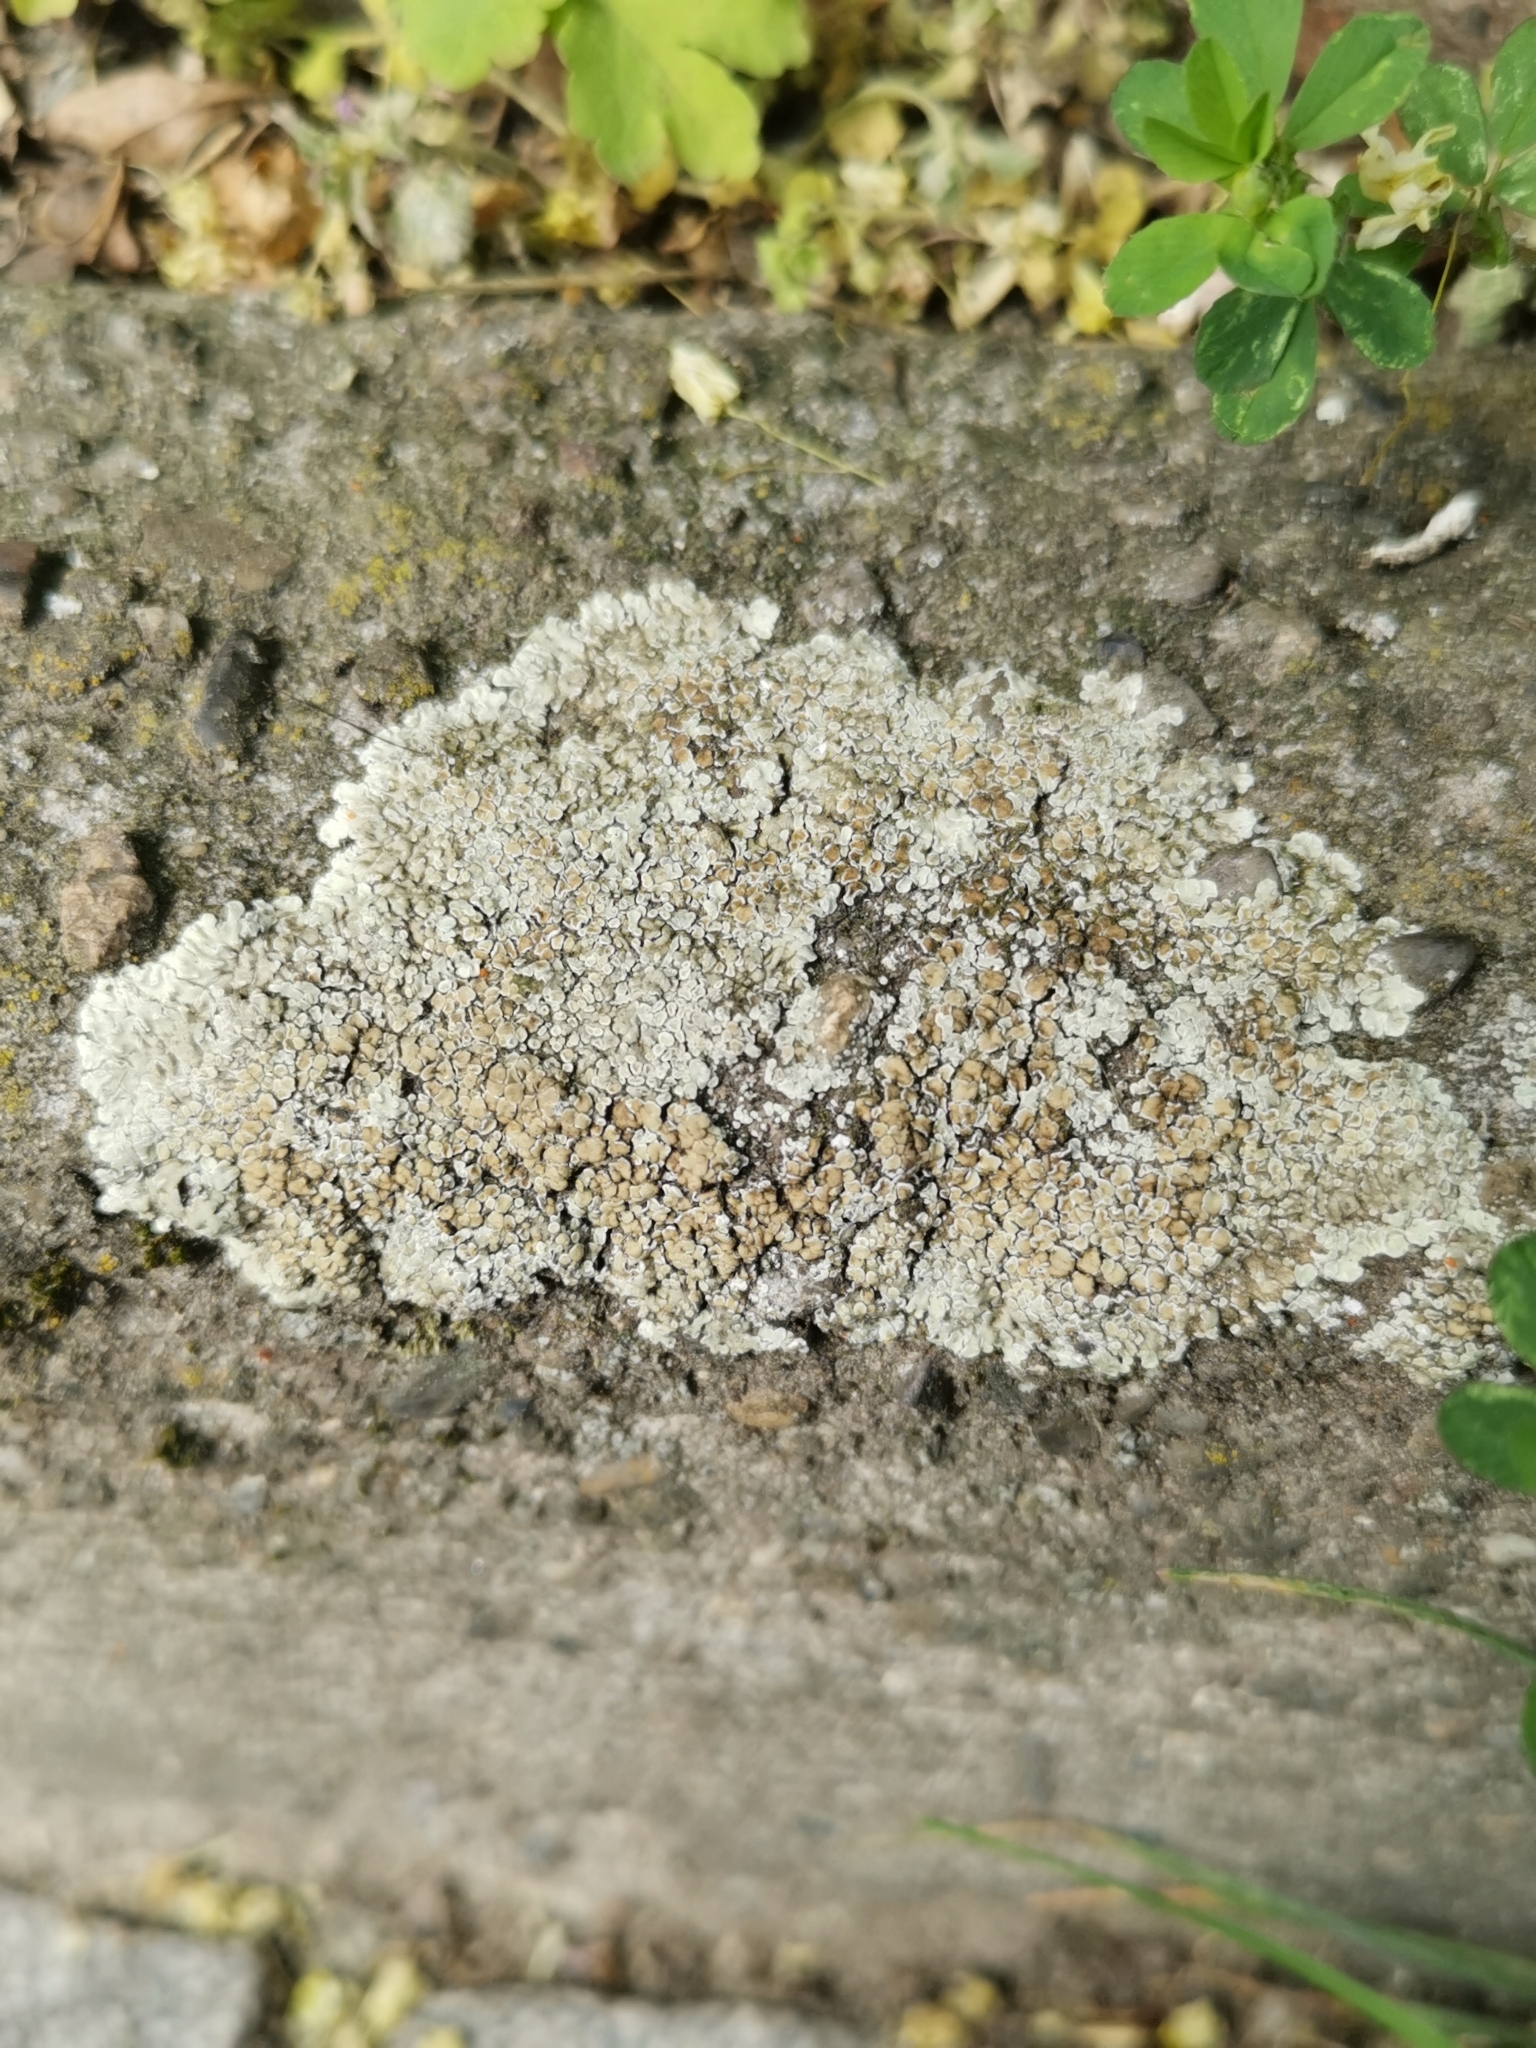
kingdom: Fungi
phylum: Ascomycota
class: Lecanoromycetes
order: Lecanorales
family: Lecanoraceae
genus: Protoparmeliopsis
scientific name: Protoparmeliopsis muralis
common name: Stonewall rim lichen
